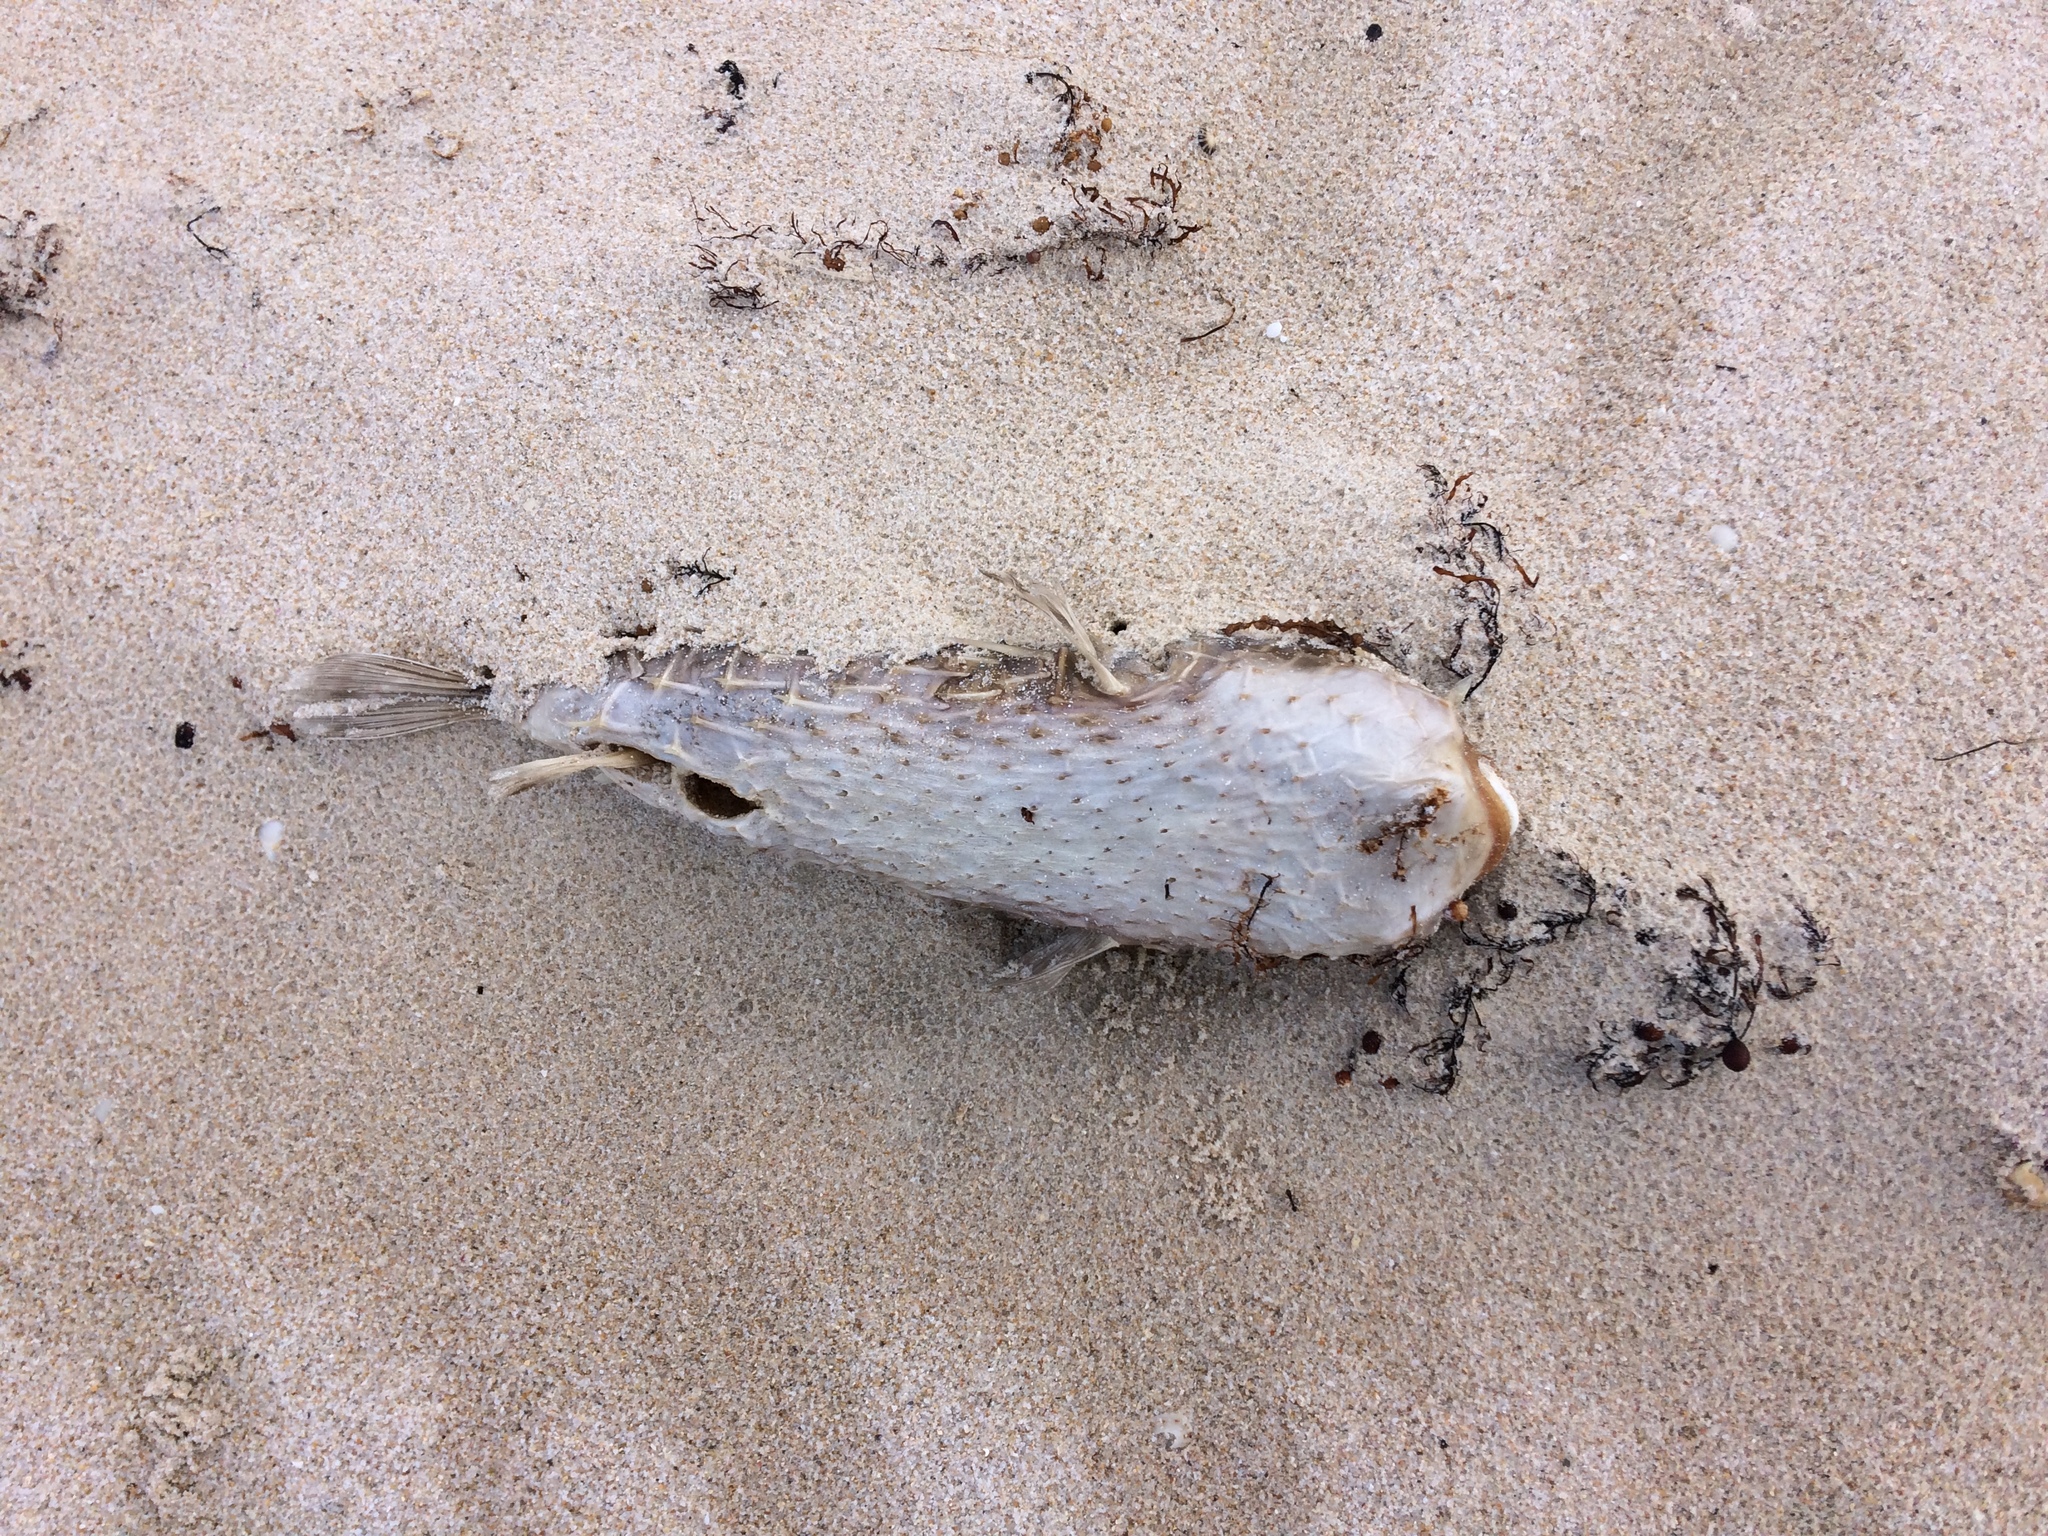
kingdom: Animalia
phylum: Chordata
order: Tetraodontiformes
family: Diodontidae
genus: Allomycterus
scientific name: Allomycterus pilatus
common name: No common name
